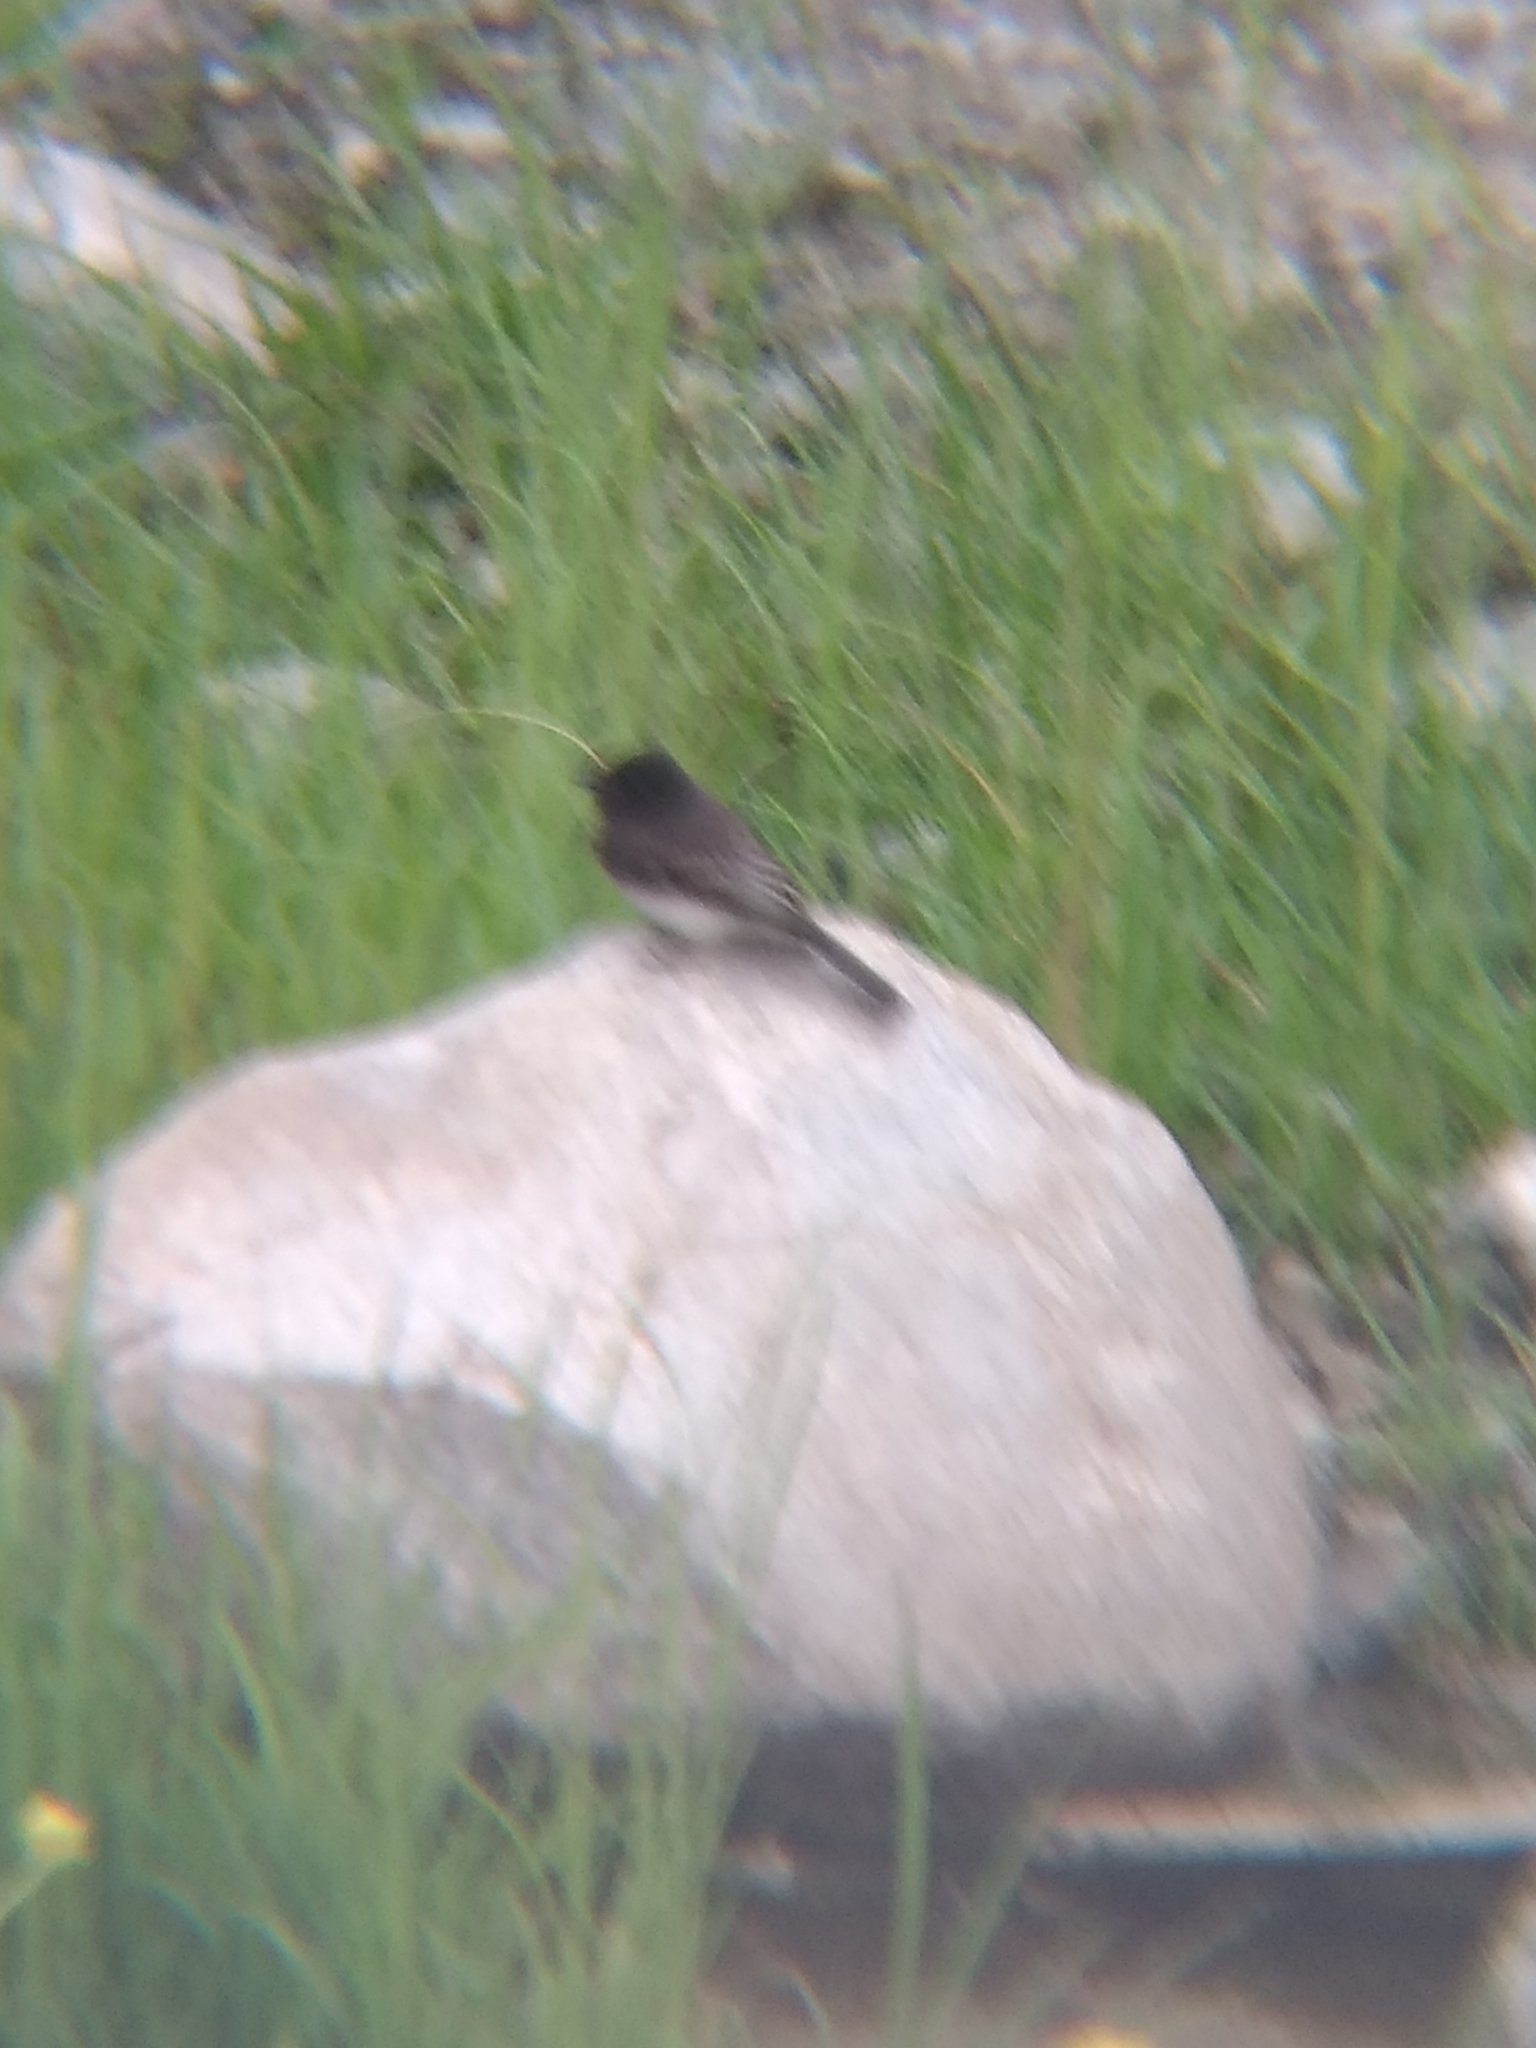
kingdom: Animalia
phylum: Chordata
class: Aves
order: Passeriformes
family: Tyrannidae
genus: Sayornis
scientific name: Sayornis nigricans
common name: Black phoebe
